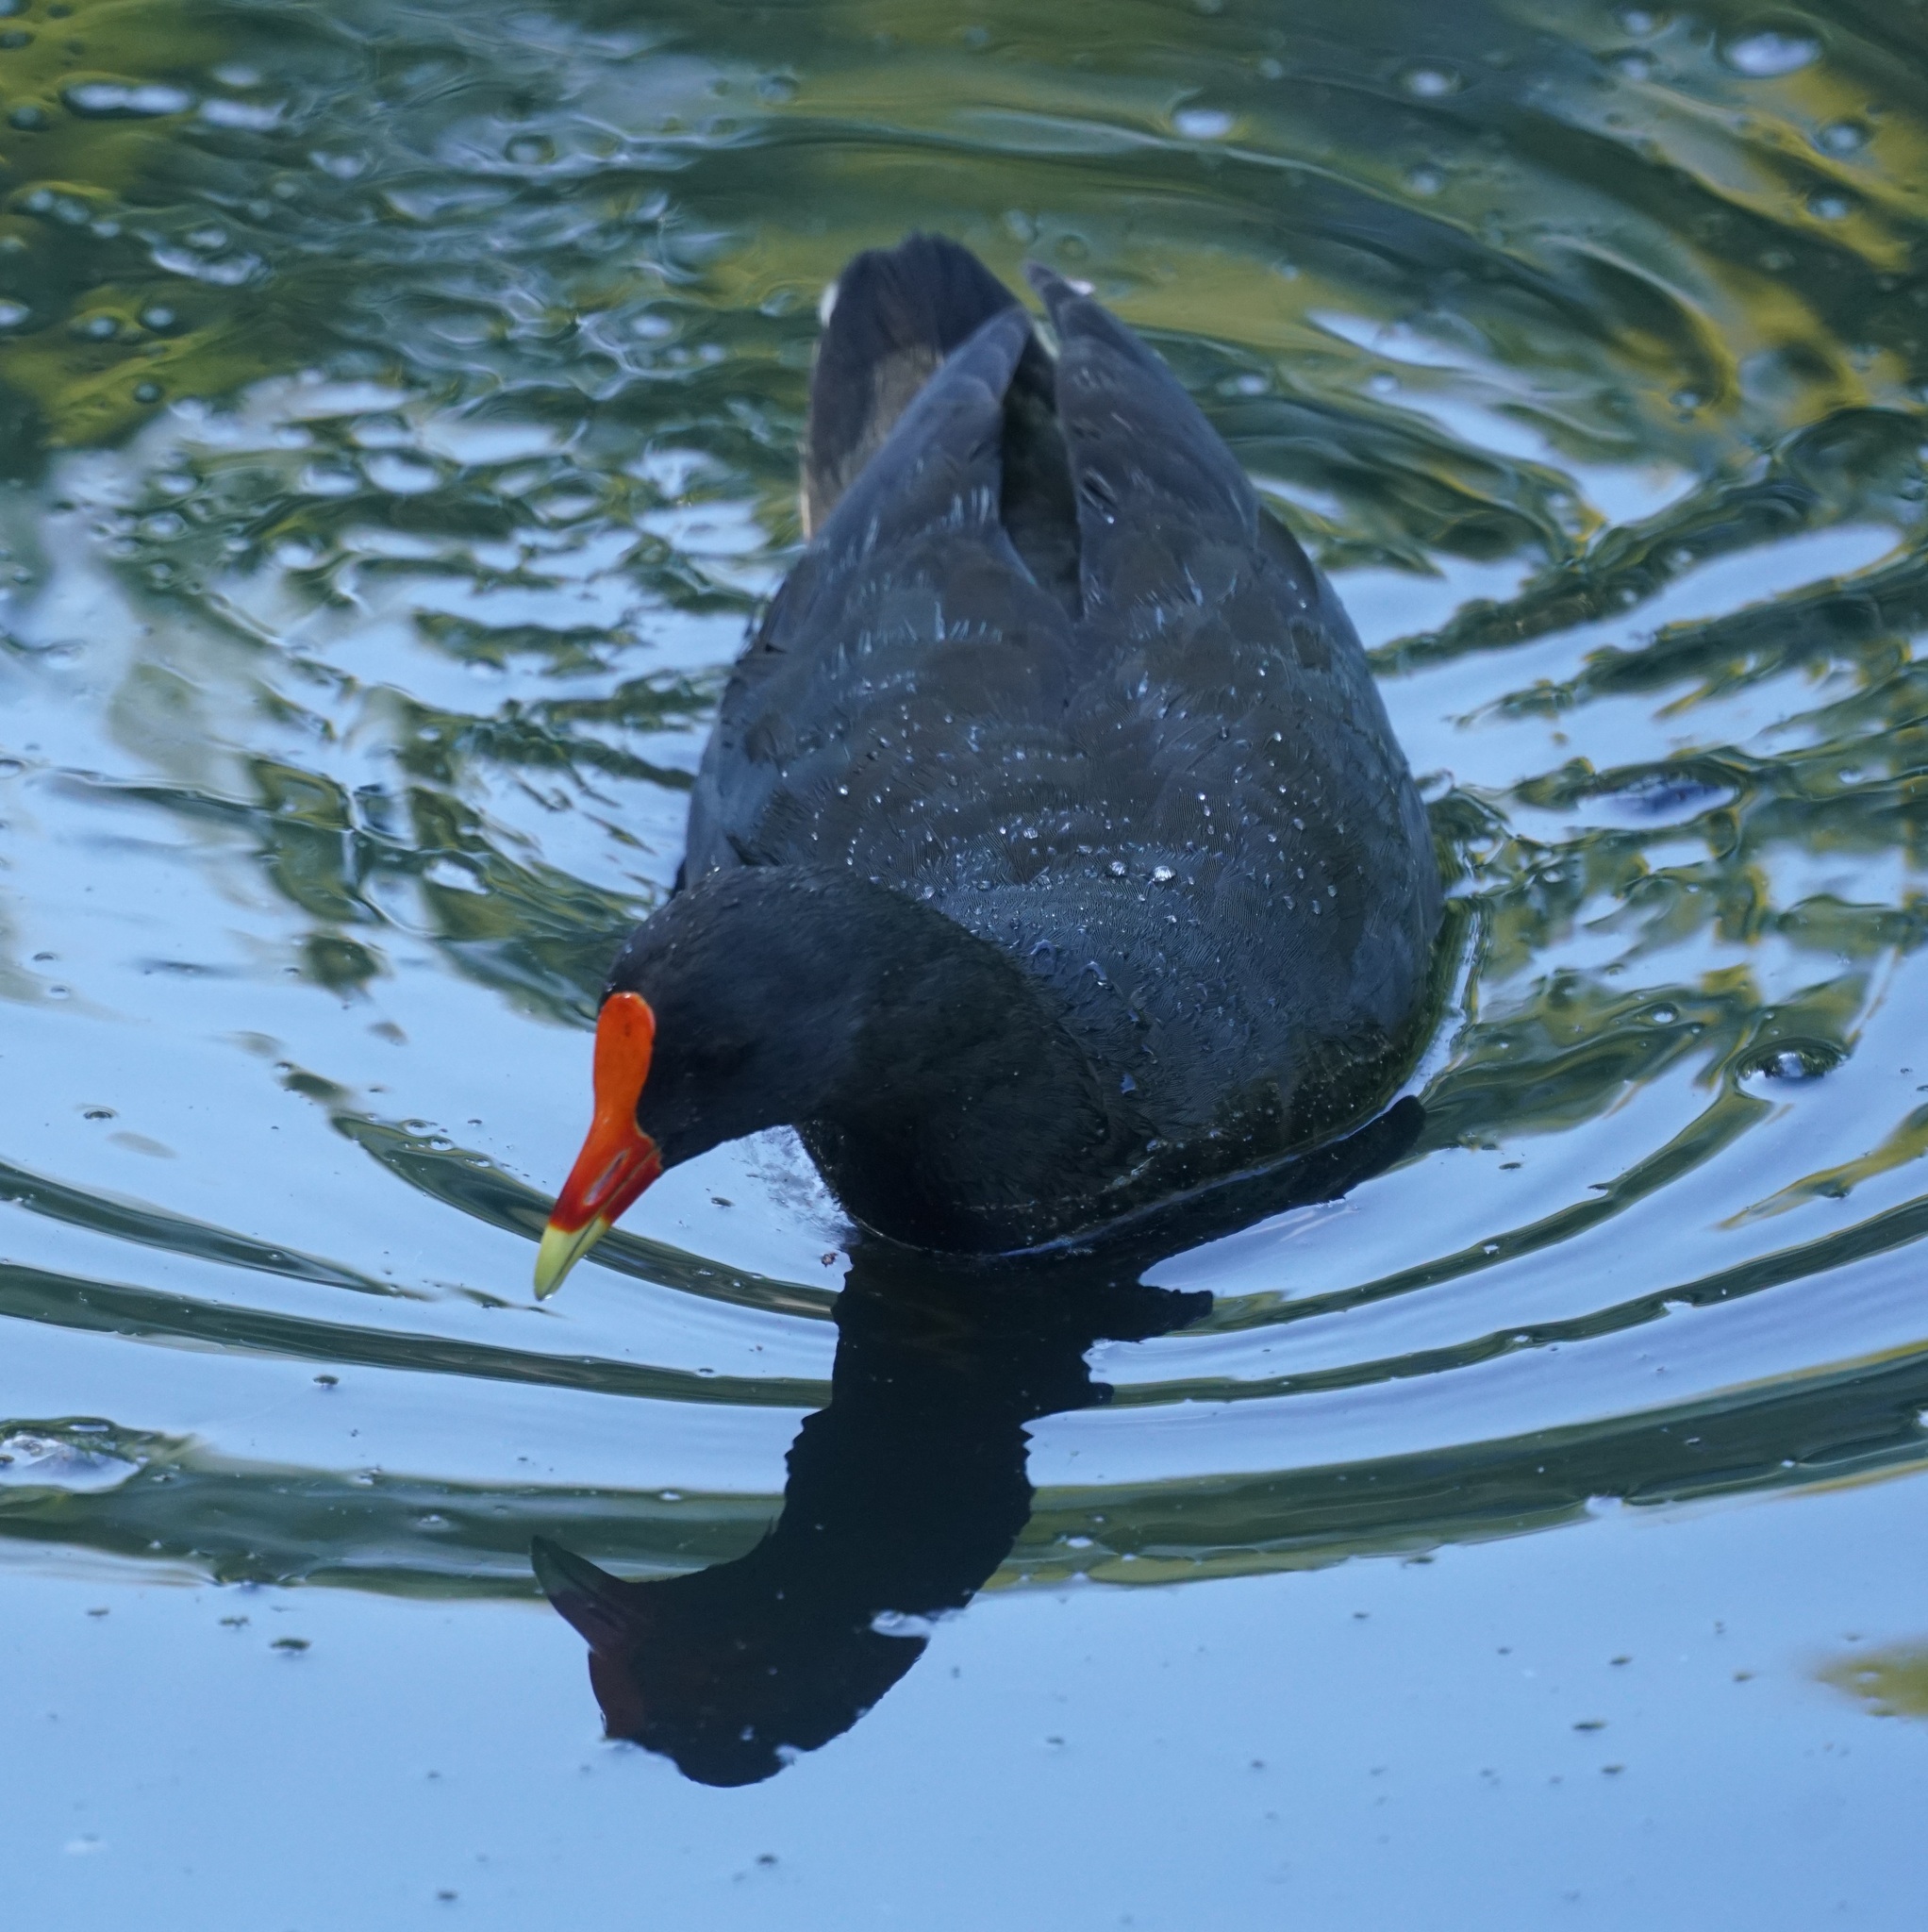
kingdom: Animalia
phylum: Chordata
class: Aves
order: Gruiformes
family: Rallidae
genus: Gallinula
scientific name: Gallinula tenebrosa
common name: Dusky moorhen
